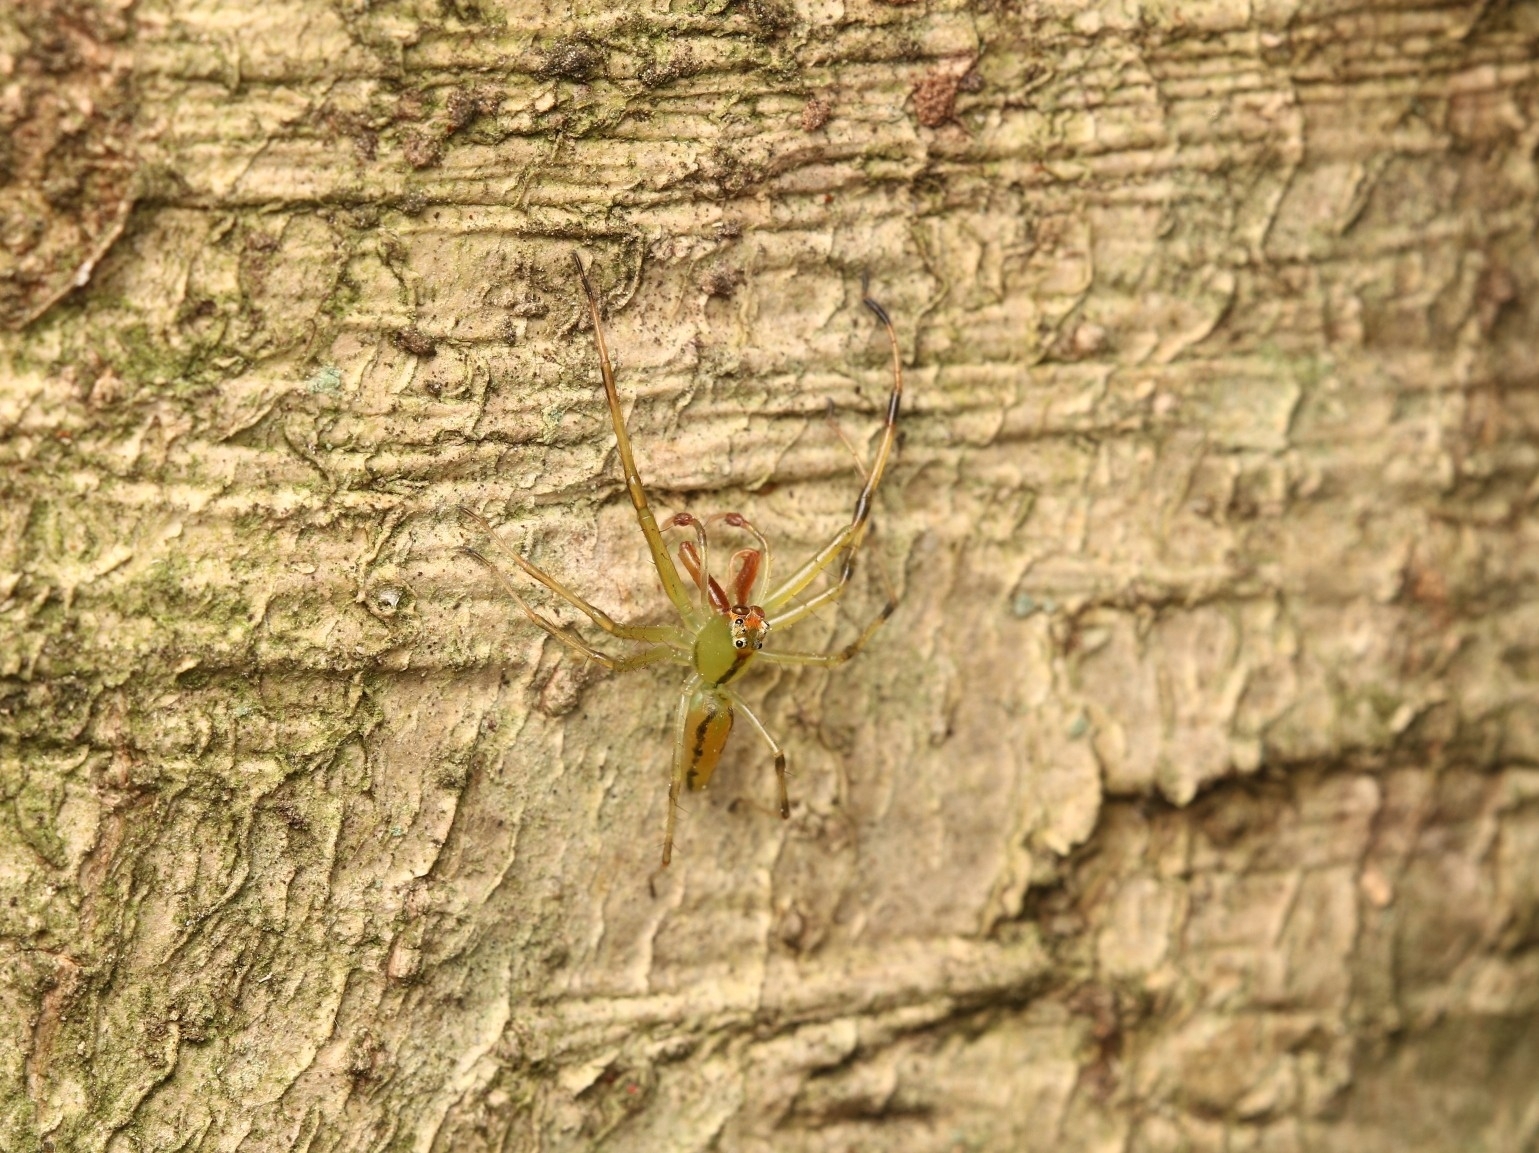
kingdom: Animalia
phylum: Arthropoda
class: Arachnida
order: Araneae
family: Salticidae
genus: Lyssomanes
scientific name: Lyssomanes viridis
